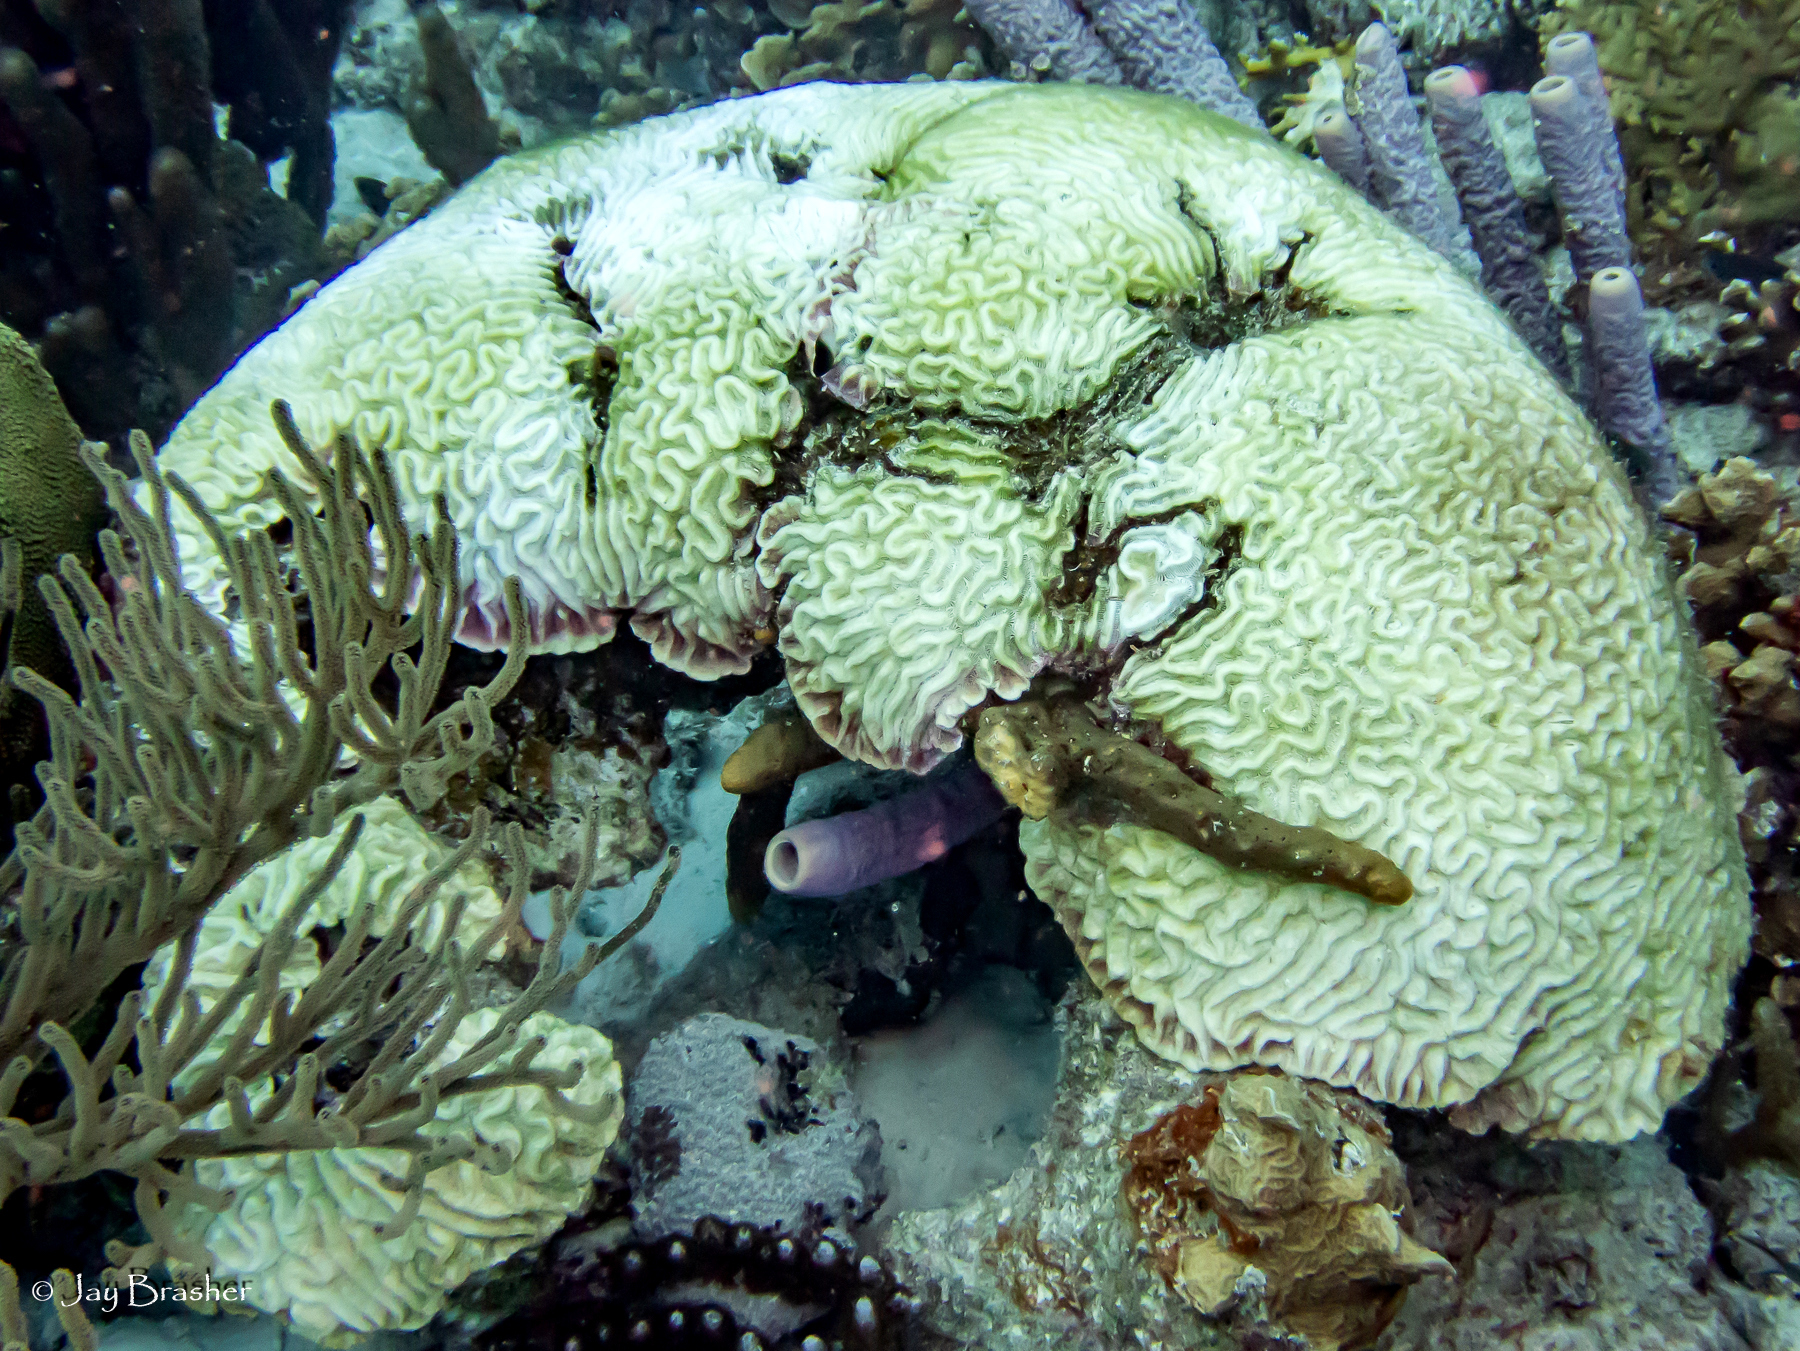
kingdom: Animalia
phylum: Cnidaria
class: Anthozoa
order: Scleractinia
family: Faviidae
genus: Pseudodiploria
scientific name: Pseudodiploria strigosa
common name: Symmetrical brain coral
